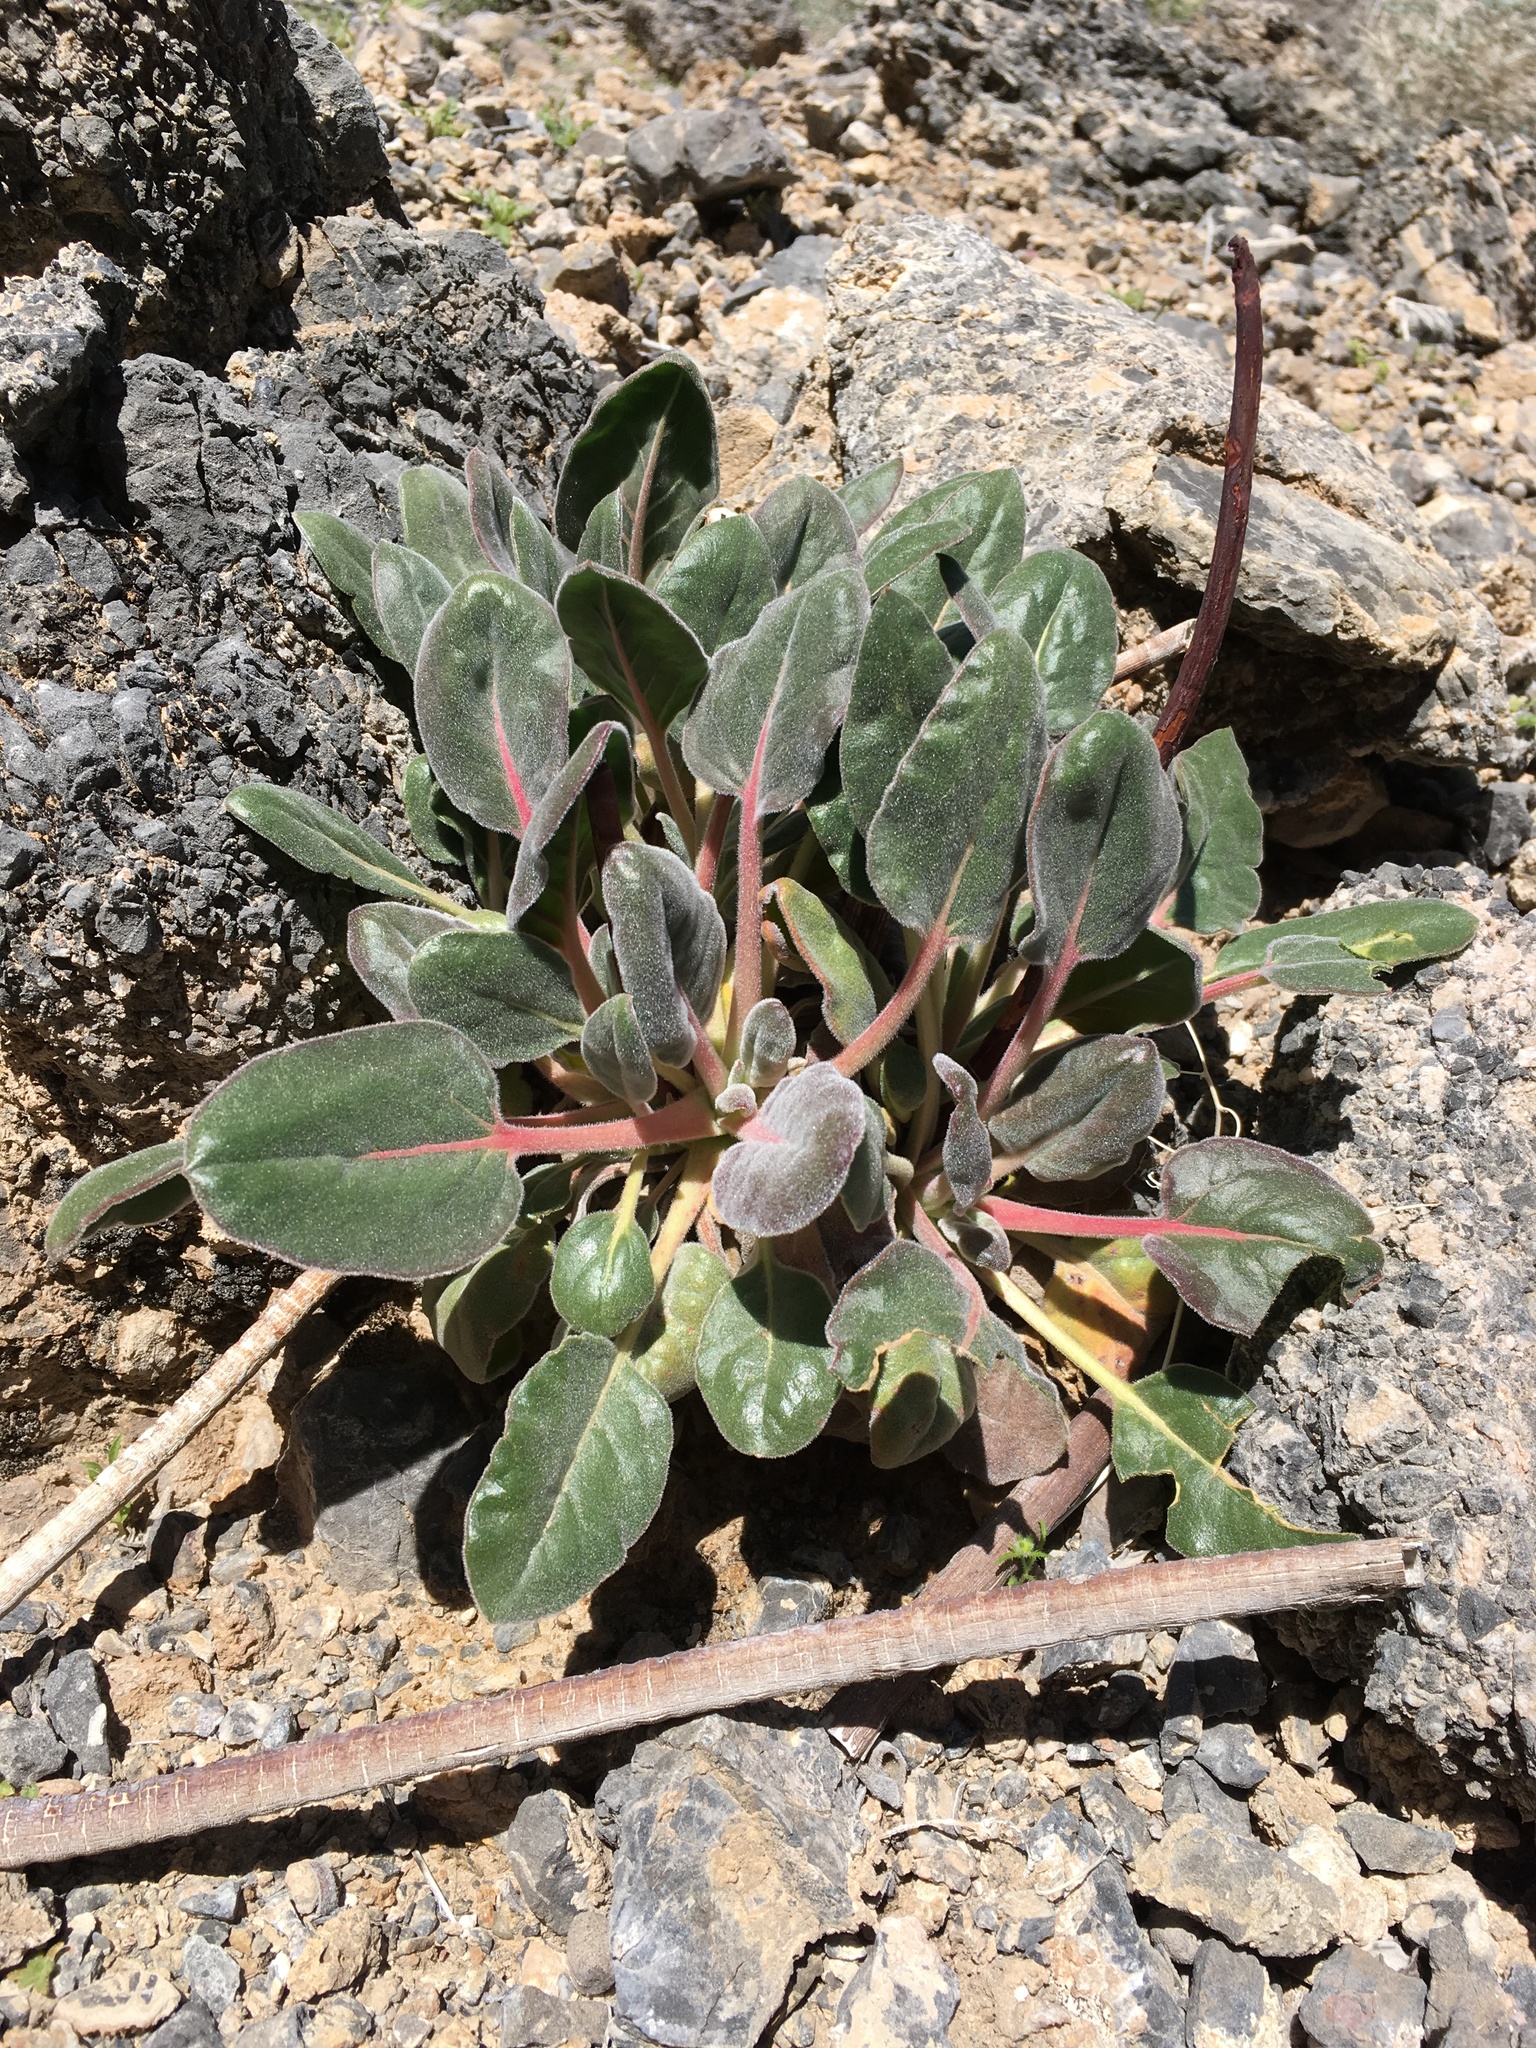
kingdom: Plantae
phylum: Tracheophyta
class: Magnoliopsida
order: Caryophyllales
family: Polygonaceae
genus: Eriogonum
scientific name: Eriogonum intrafractum
